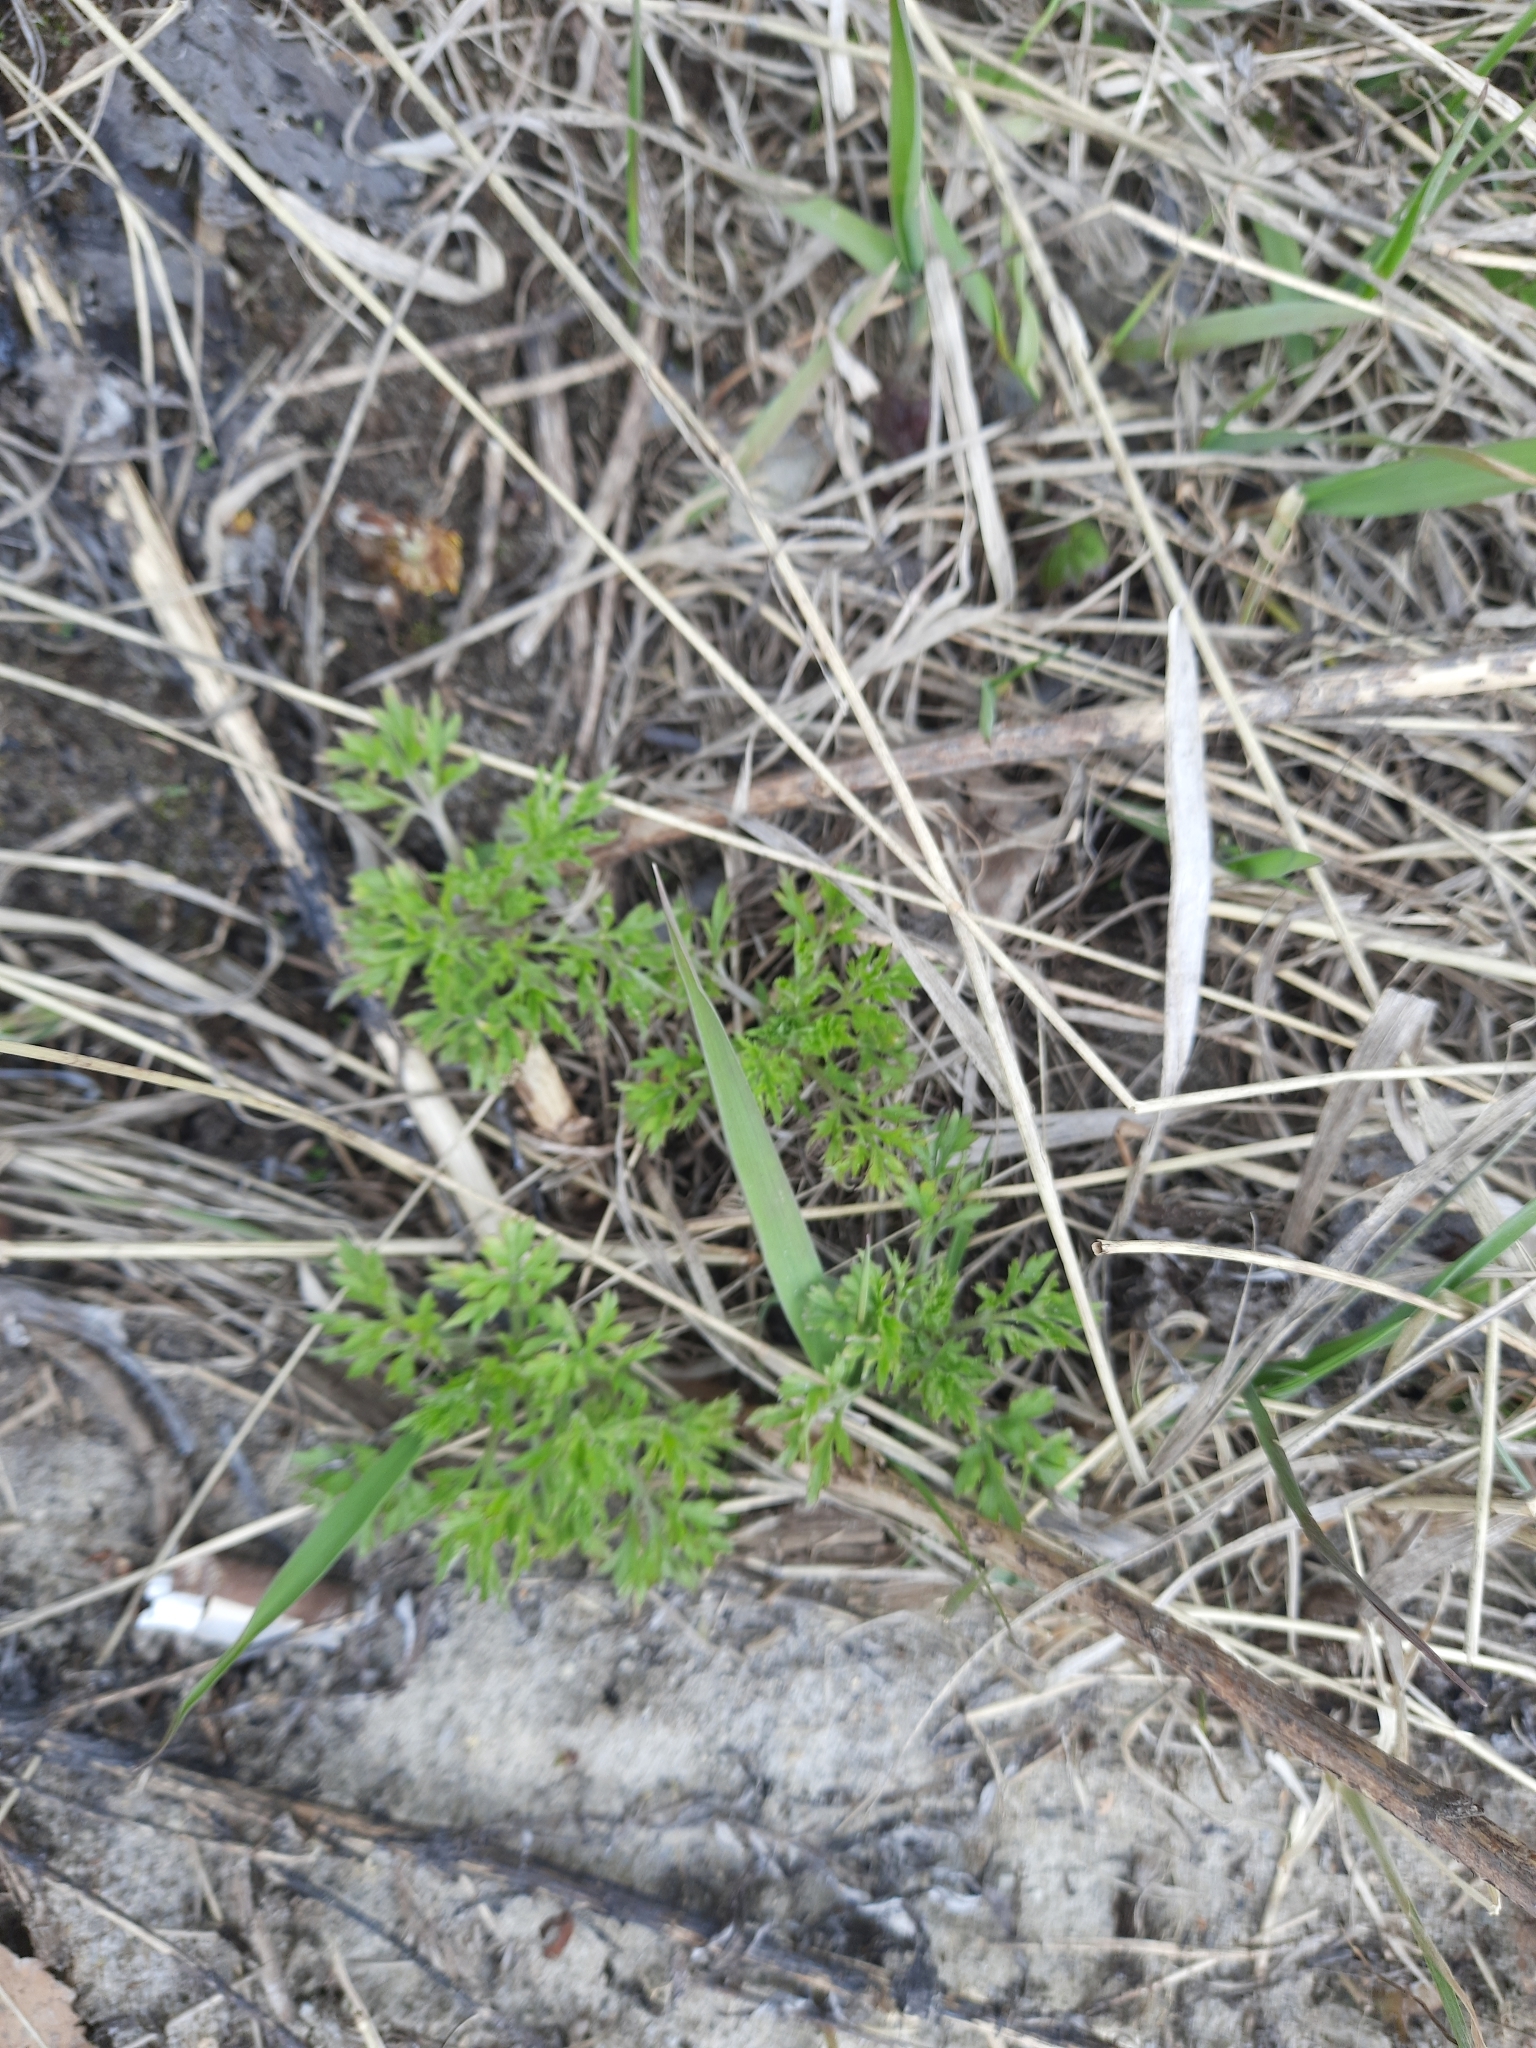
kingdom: Plantae
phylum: Tracheophyta
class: Magnoliopsida
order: Apiales
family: Apiaceae
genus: Anthriscus
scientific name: Anthriscus sylvestris
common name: Cow parsley
